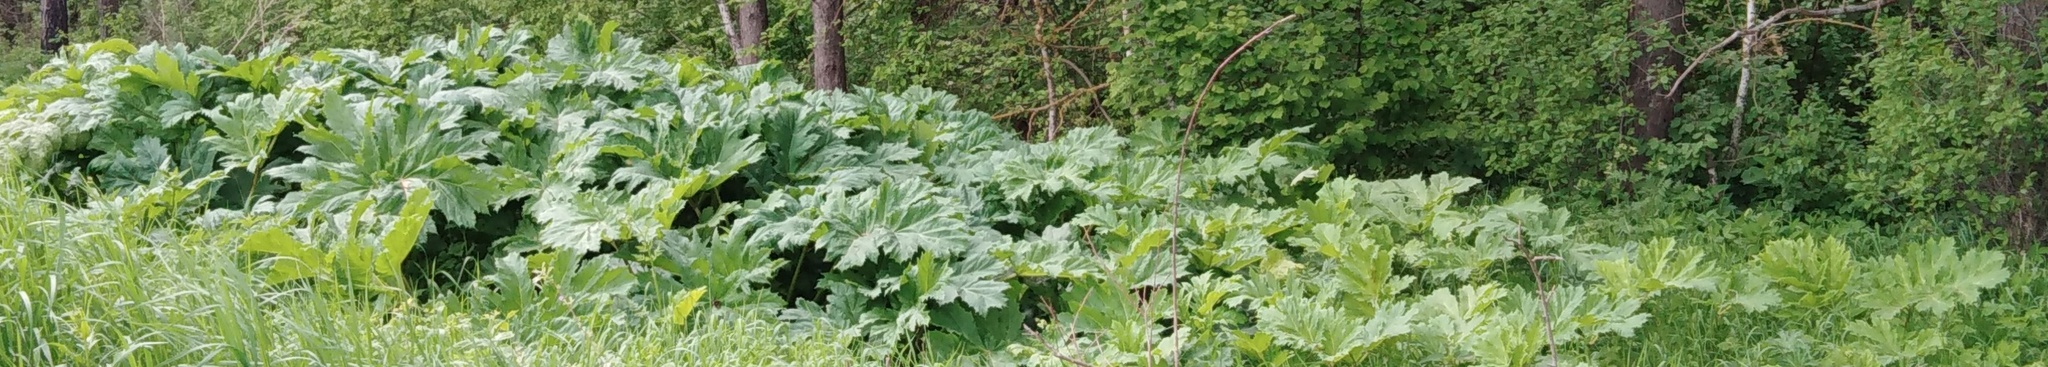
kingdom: Plantae
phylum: Tracheophyta
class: Magnoliopsida
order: Apiales
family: Apiaceae
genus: Heracleum
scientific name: Heracleum sosnowskyi
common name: Sosnowsky's hogweed
